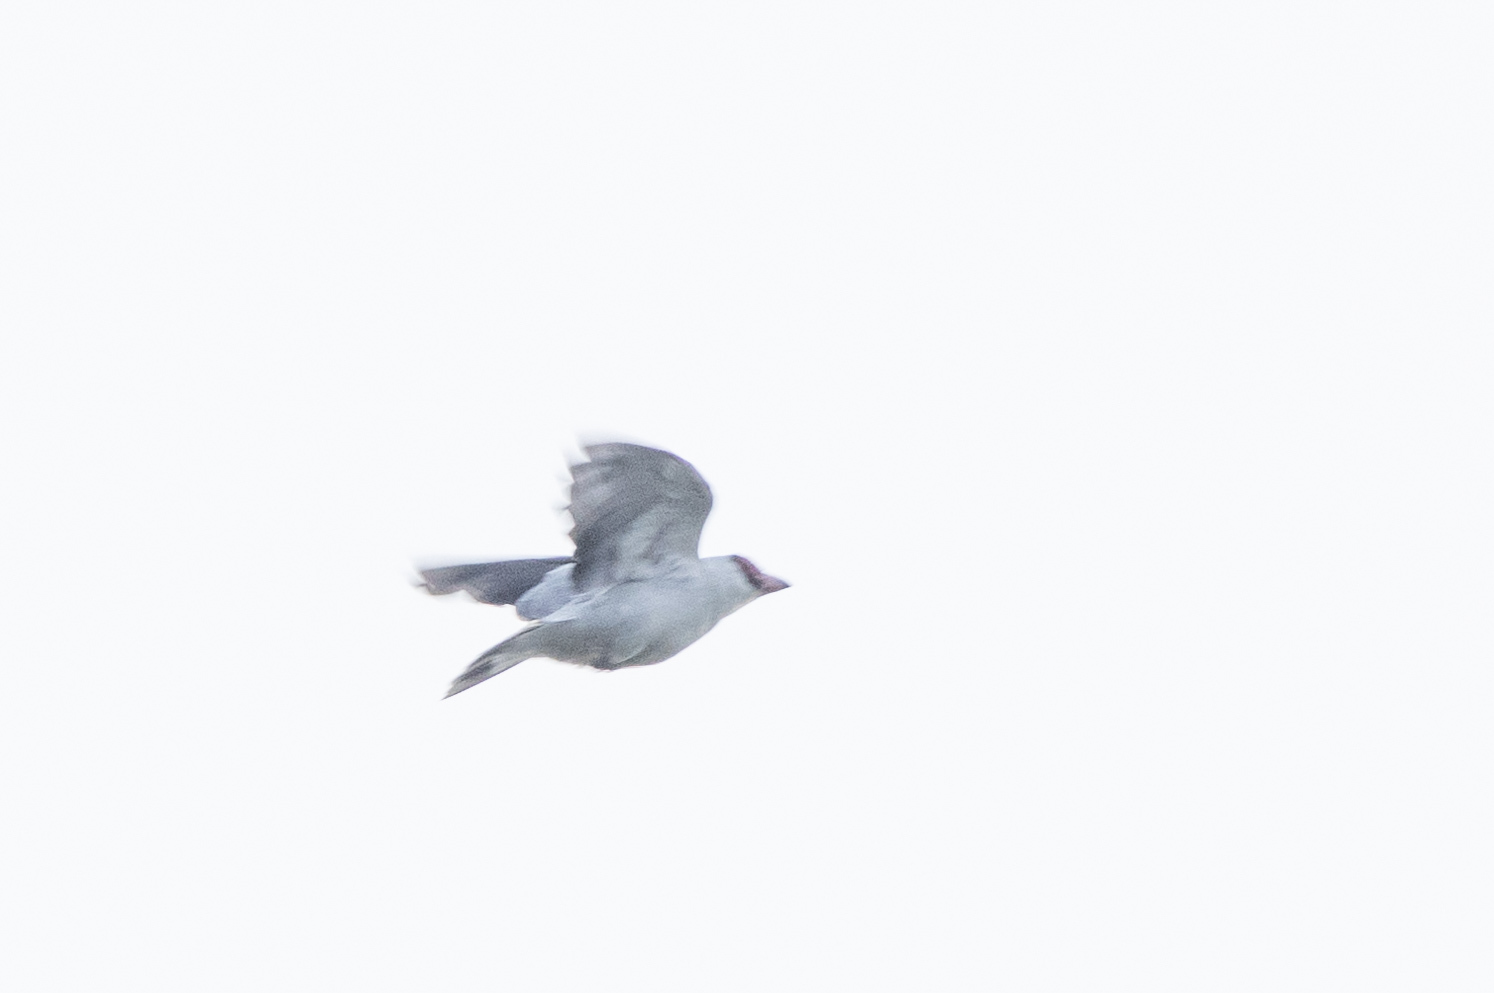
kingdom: Animalia
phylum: Chordata
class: Aves
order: Passeriformes
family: Cotingidae
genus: Tityra
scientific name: Tityra semifasciata
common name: Masked tityra
